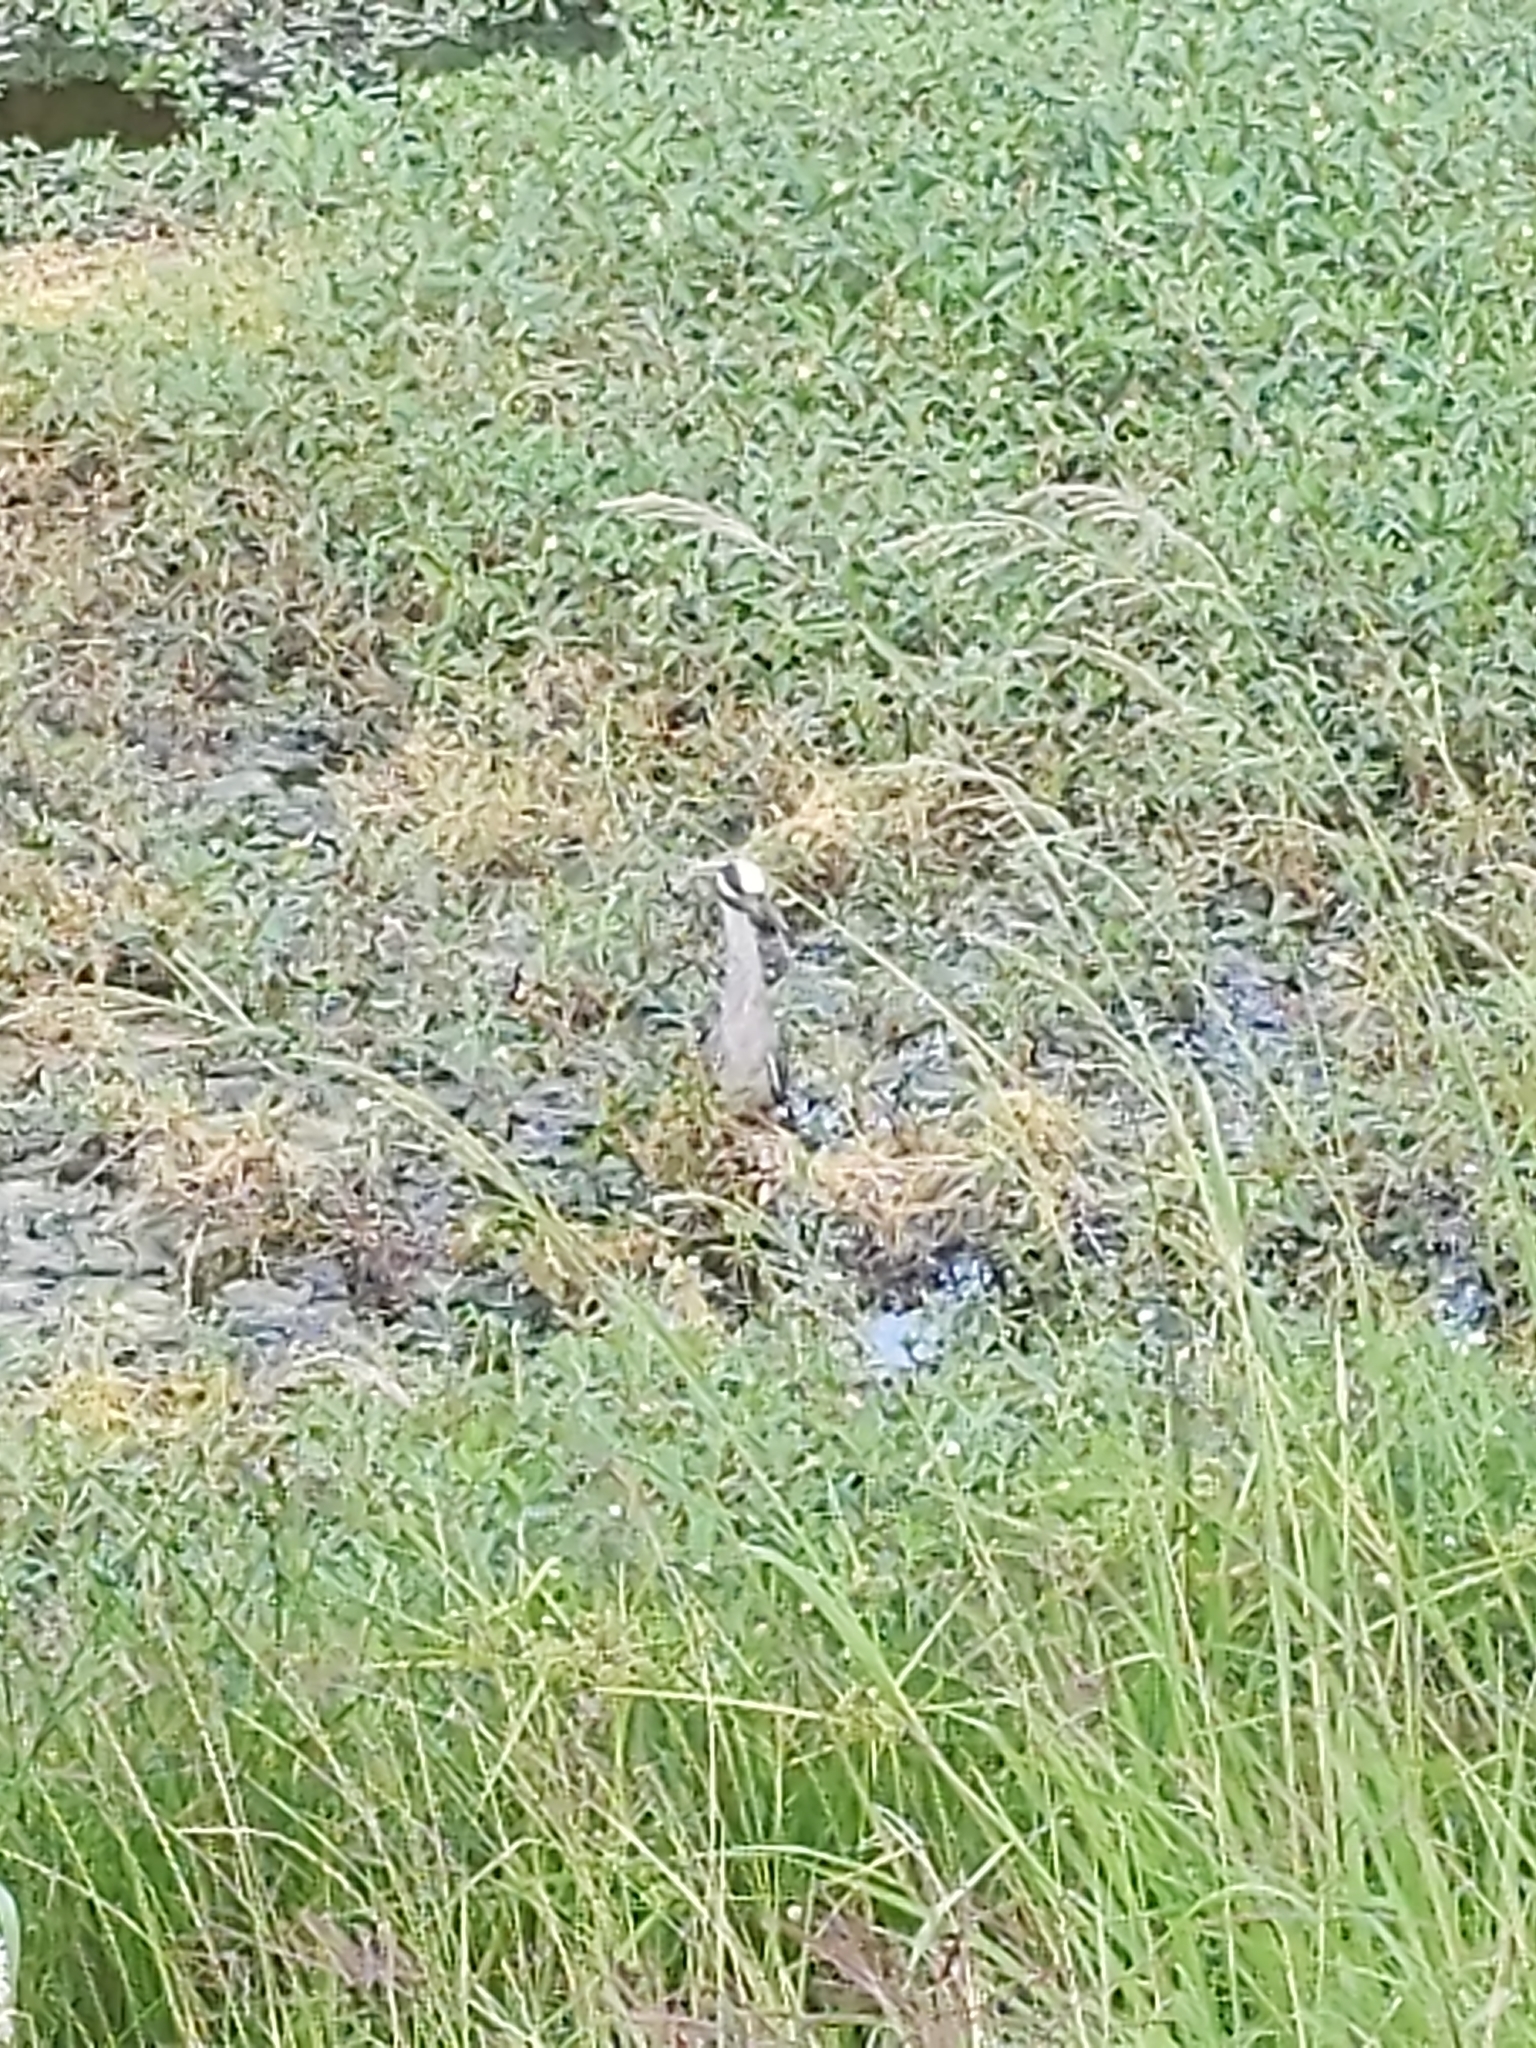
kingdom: Animalia
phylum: Chordata
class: Aves
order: Pelecaniformes
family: Ardeidae
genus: Nyctanassa
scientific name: Nyctanassa violacea
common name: Yellow-crowned night heron
